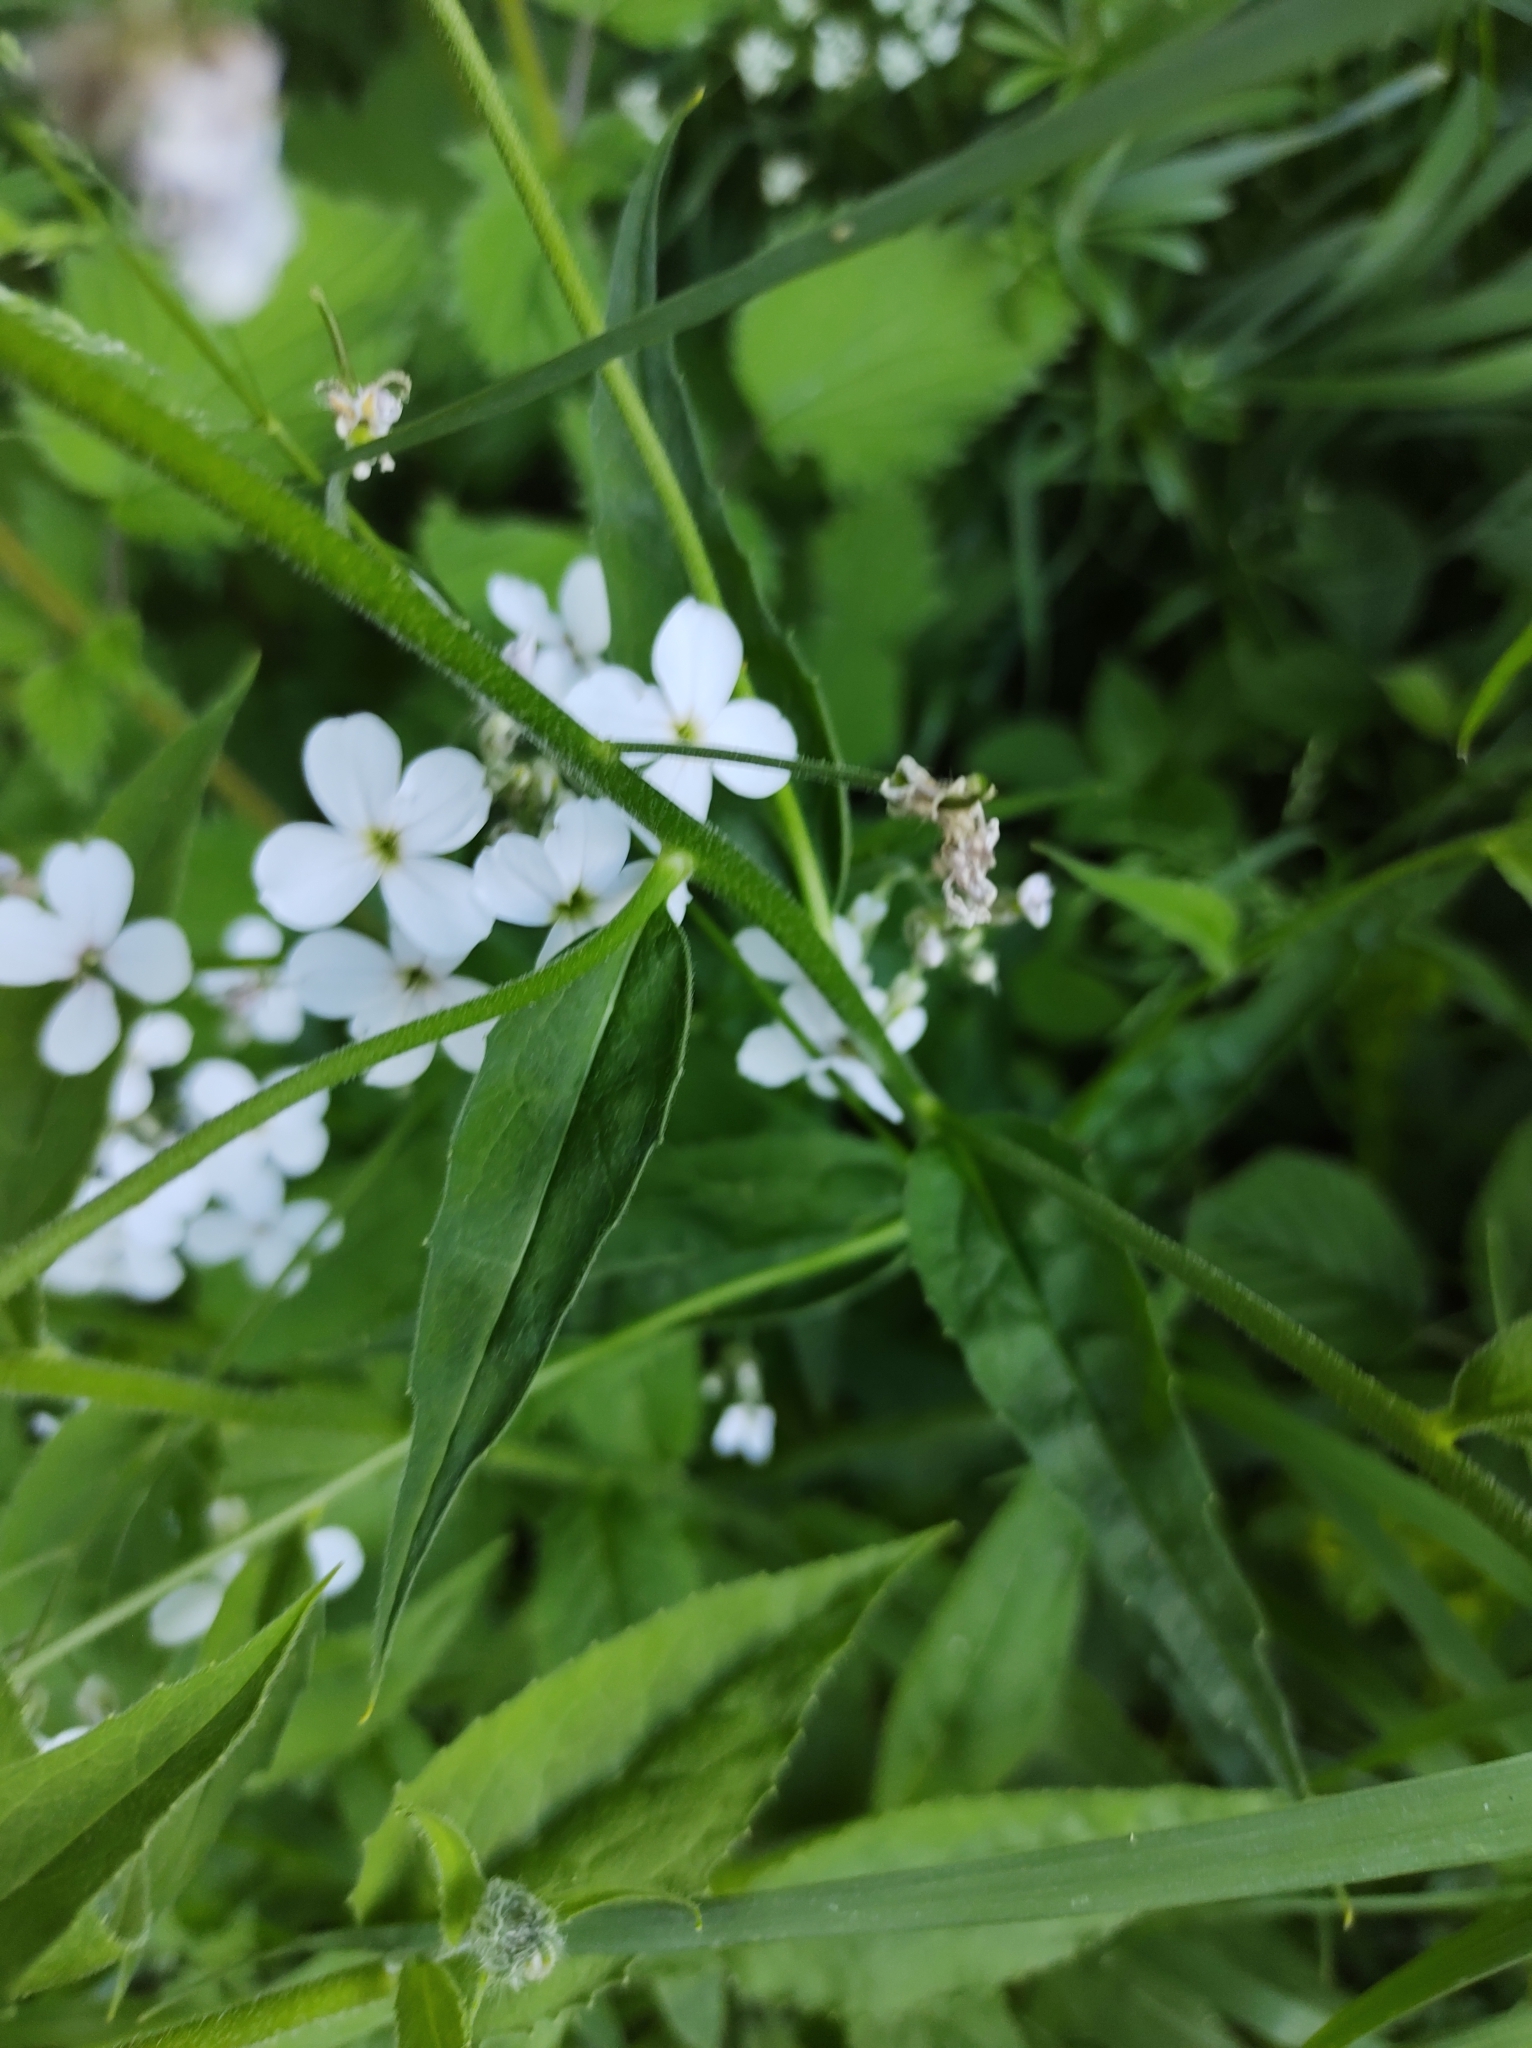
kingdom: Plantae
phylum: Tracheophyta
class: Magnoliopsida
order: Brassicales
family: Brassicaceae
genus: Hesperis
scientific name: Hesperis matronalis
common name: Dame's-violet
